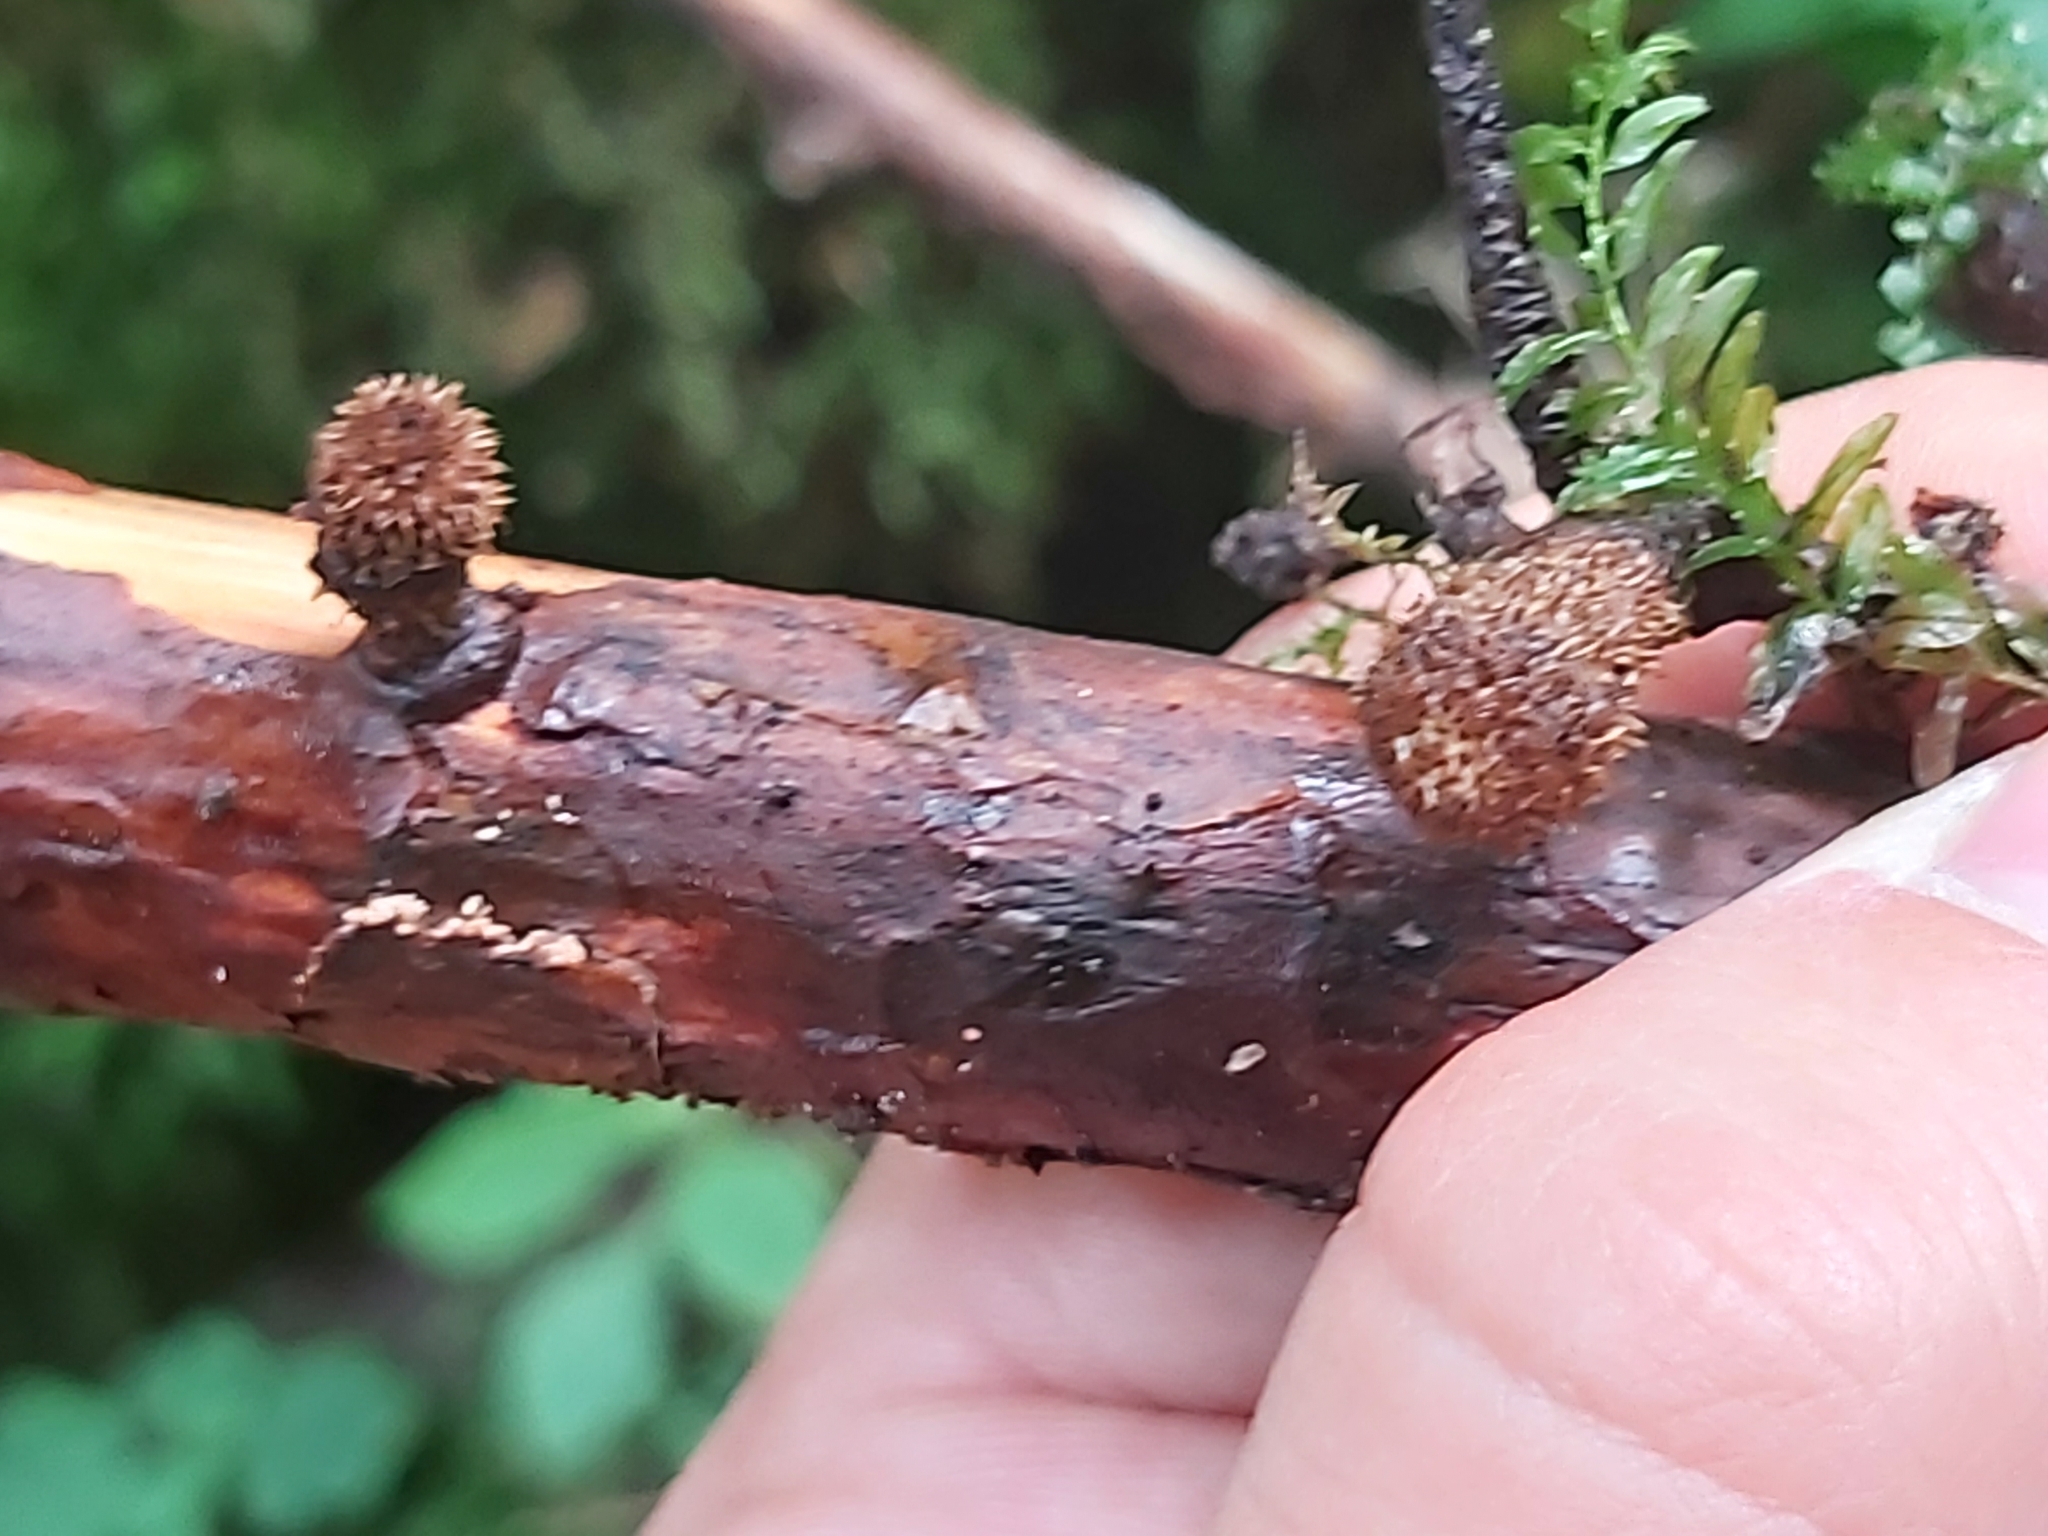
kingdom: Fungi
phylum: Basidiomycota
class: Agaricomycetes
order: Agaricales
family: Agaricaceae
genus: Cyathus
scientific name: Cyathus striatus
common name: Fluted bird's nest
